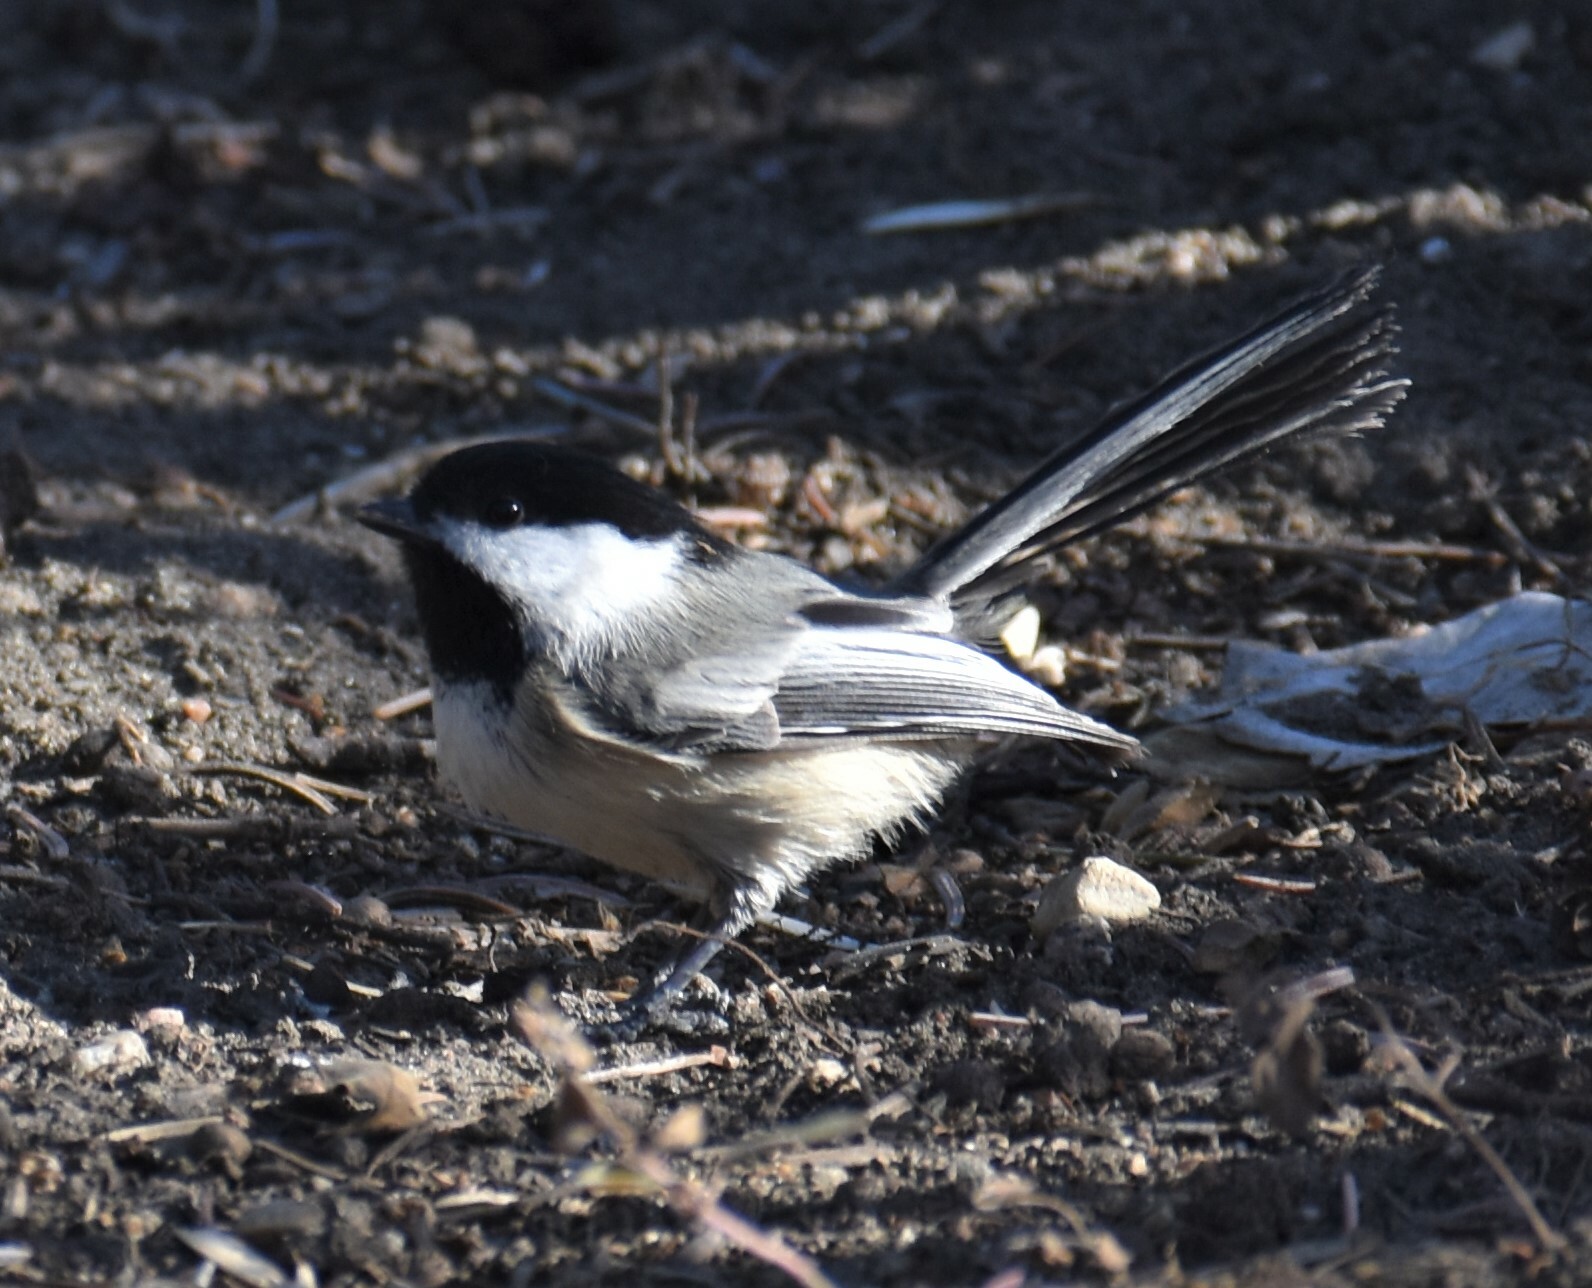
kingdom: Animalia
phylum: Chordata
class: Aves
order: Passeriformes
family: Paridae
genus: Poecile
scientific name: Poecile atricapillus
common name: Black-capped chickadee
